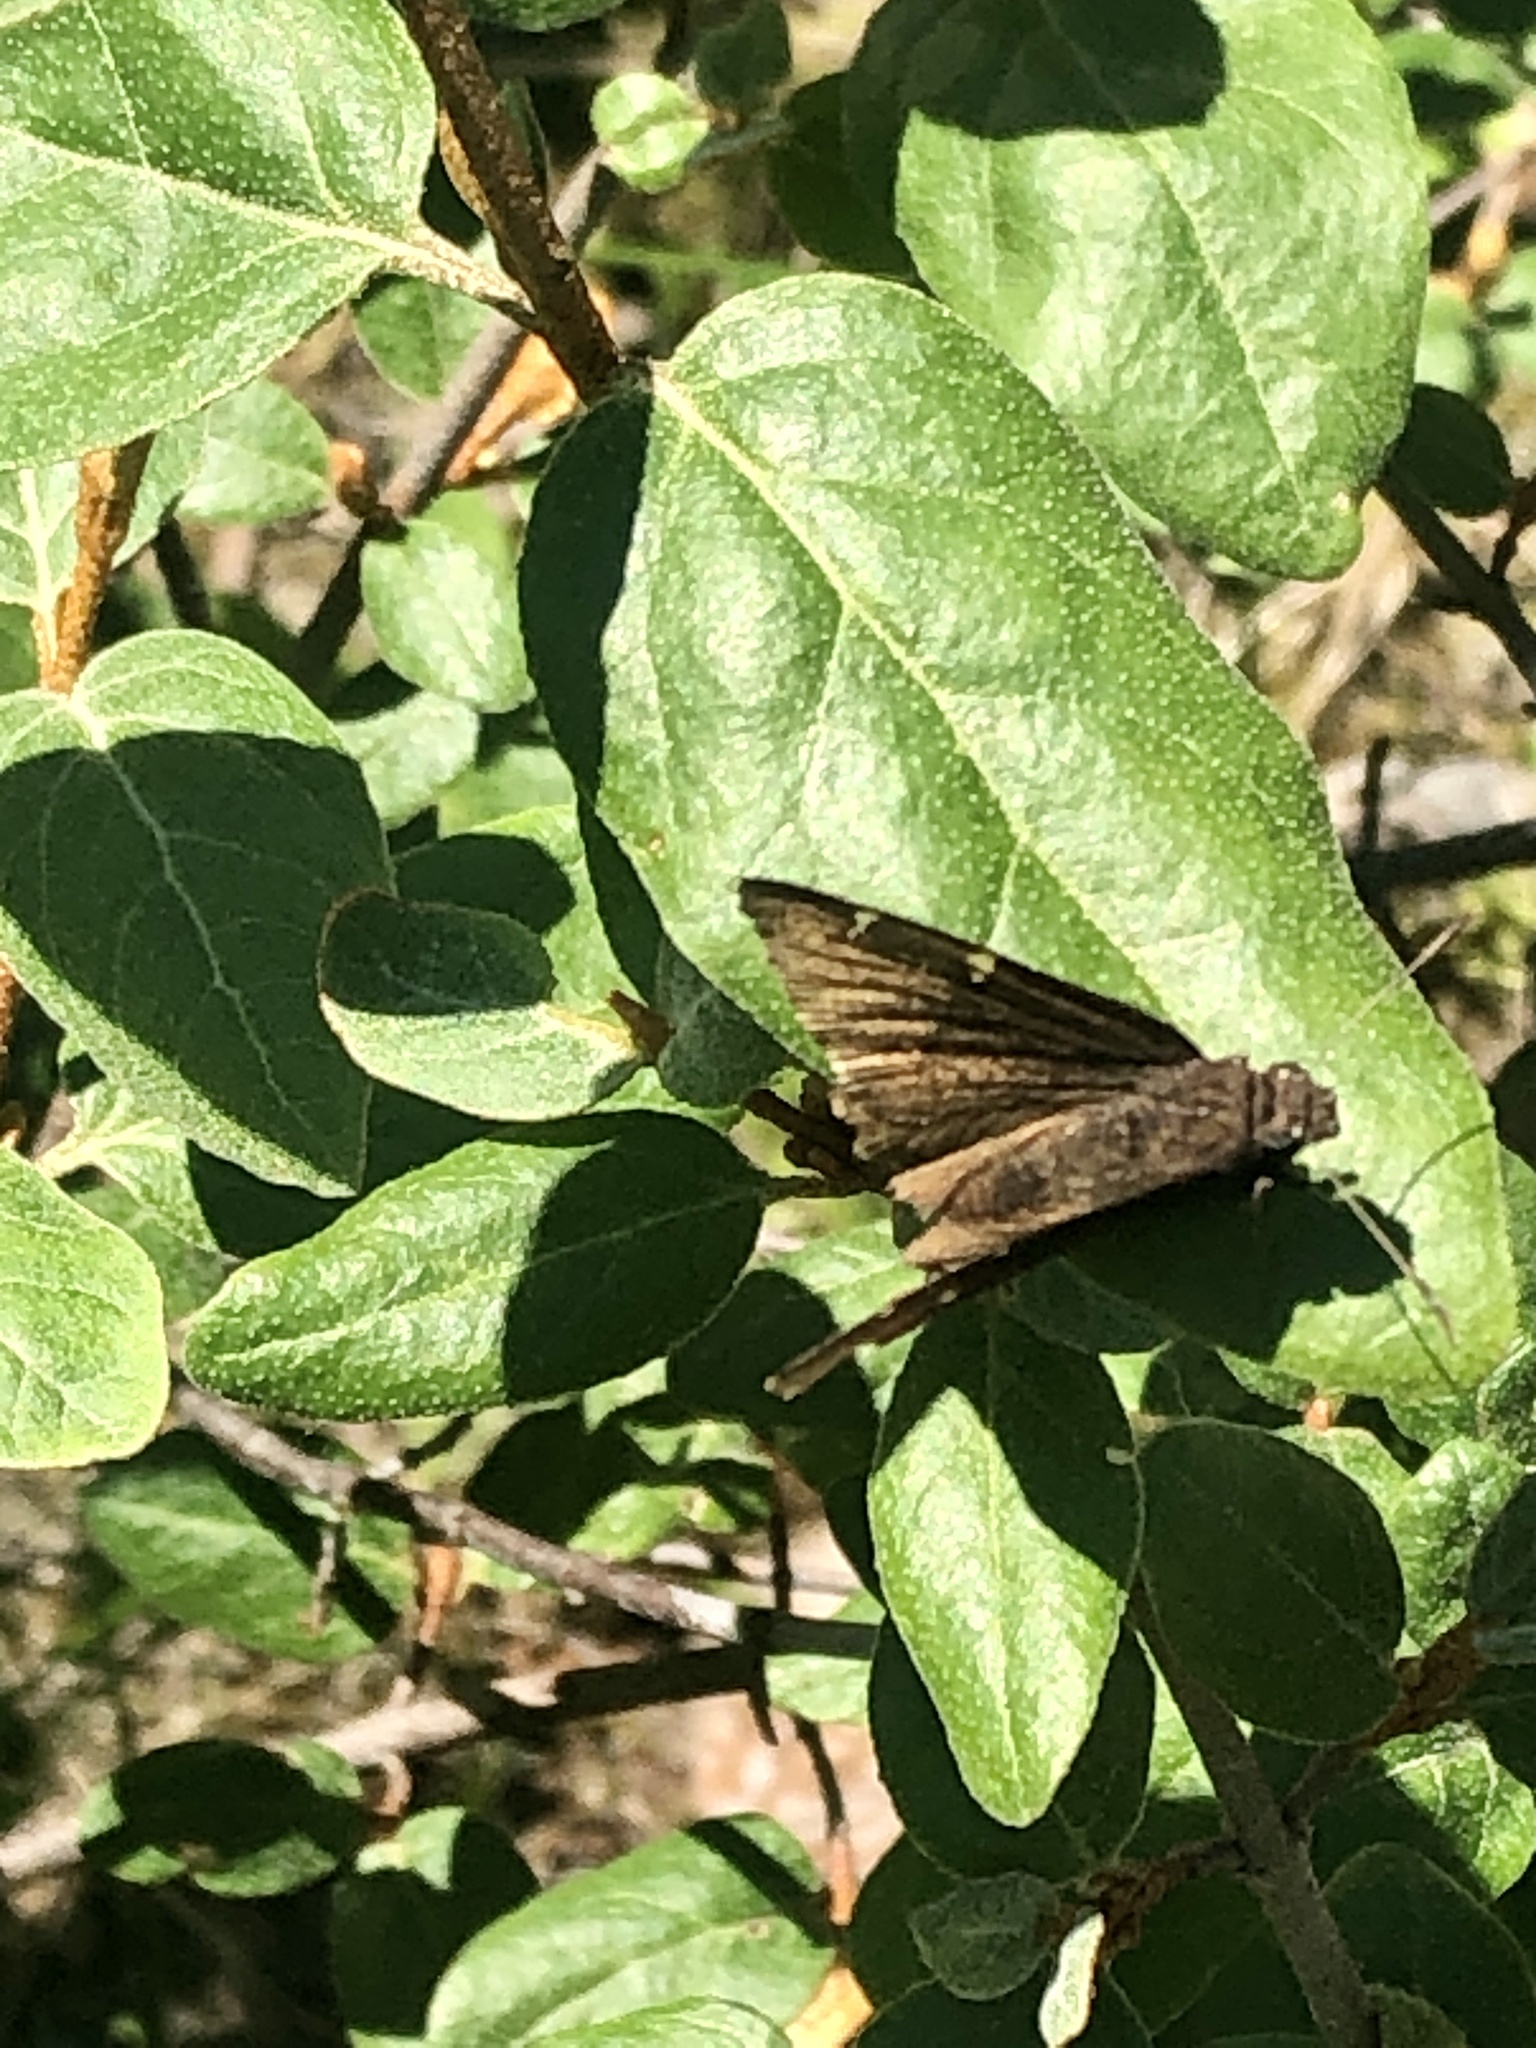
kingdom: Animalia
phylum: Arthropoda
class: Insecta
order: Lepidoptera
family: Hesperiidae
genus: Thorybes
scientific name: Thorybes pylades
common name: Northern cloudywing
